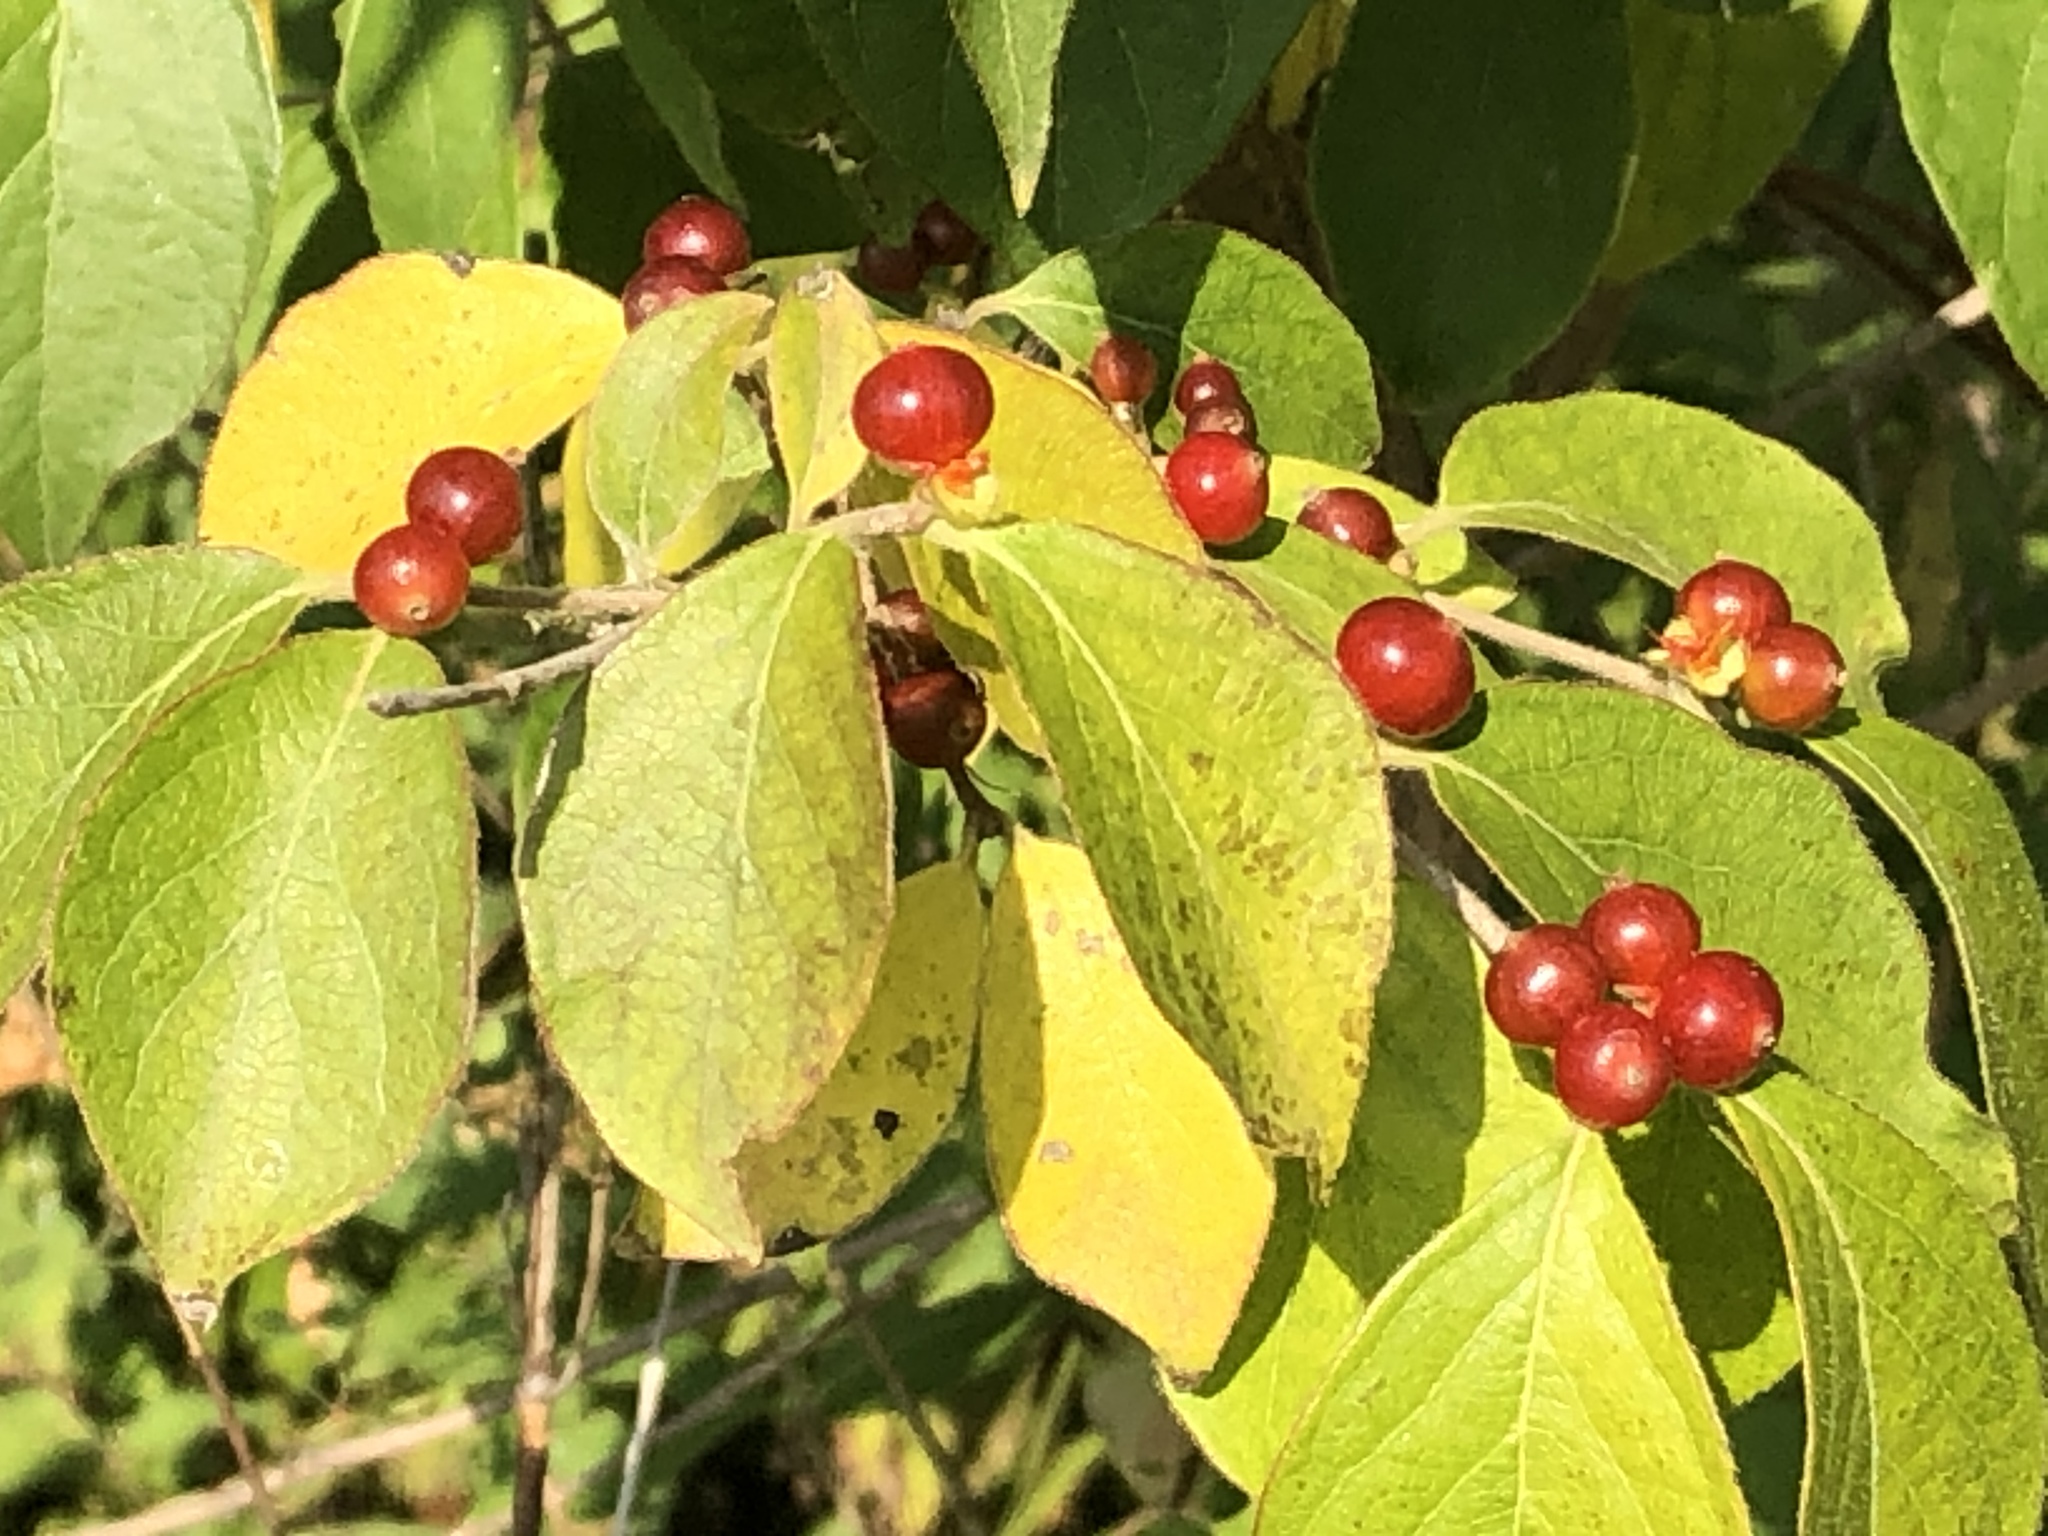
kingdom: Plantae
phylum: Tracheophyta
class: Magnoliopsida
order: Dipsacales
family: Caprifoliaceae
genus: Lonicera
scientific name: Lonicera maackii
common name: Amur honeysuckle
